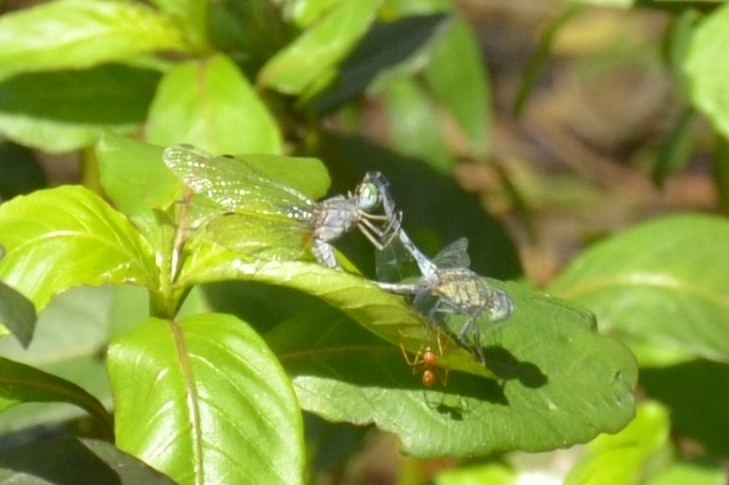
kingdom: Animalia
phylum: Arthropoda
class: Insecta
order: Odonata
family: Libellulidae
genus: Diplacodes
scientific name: Diplacodes trivialis
